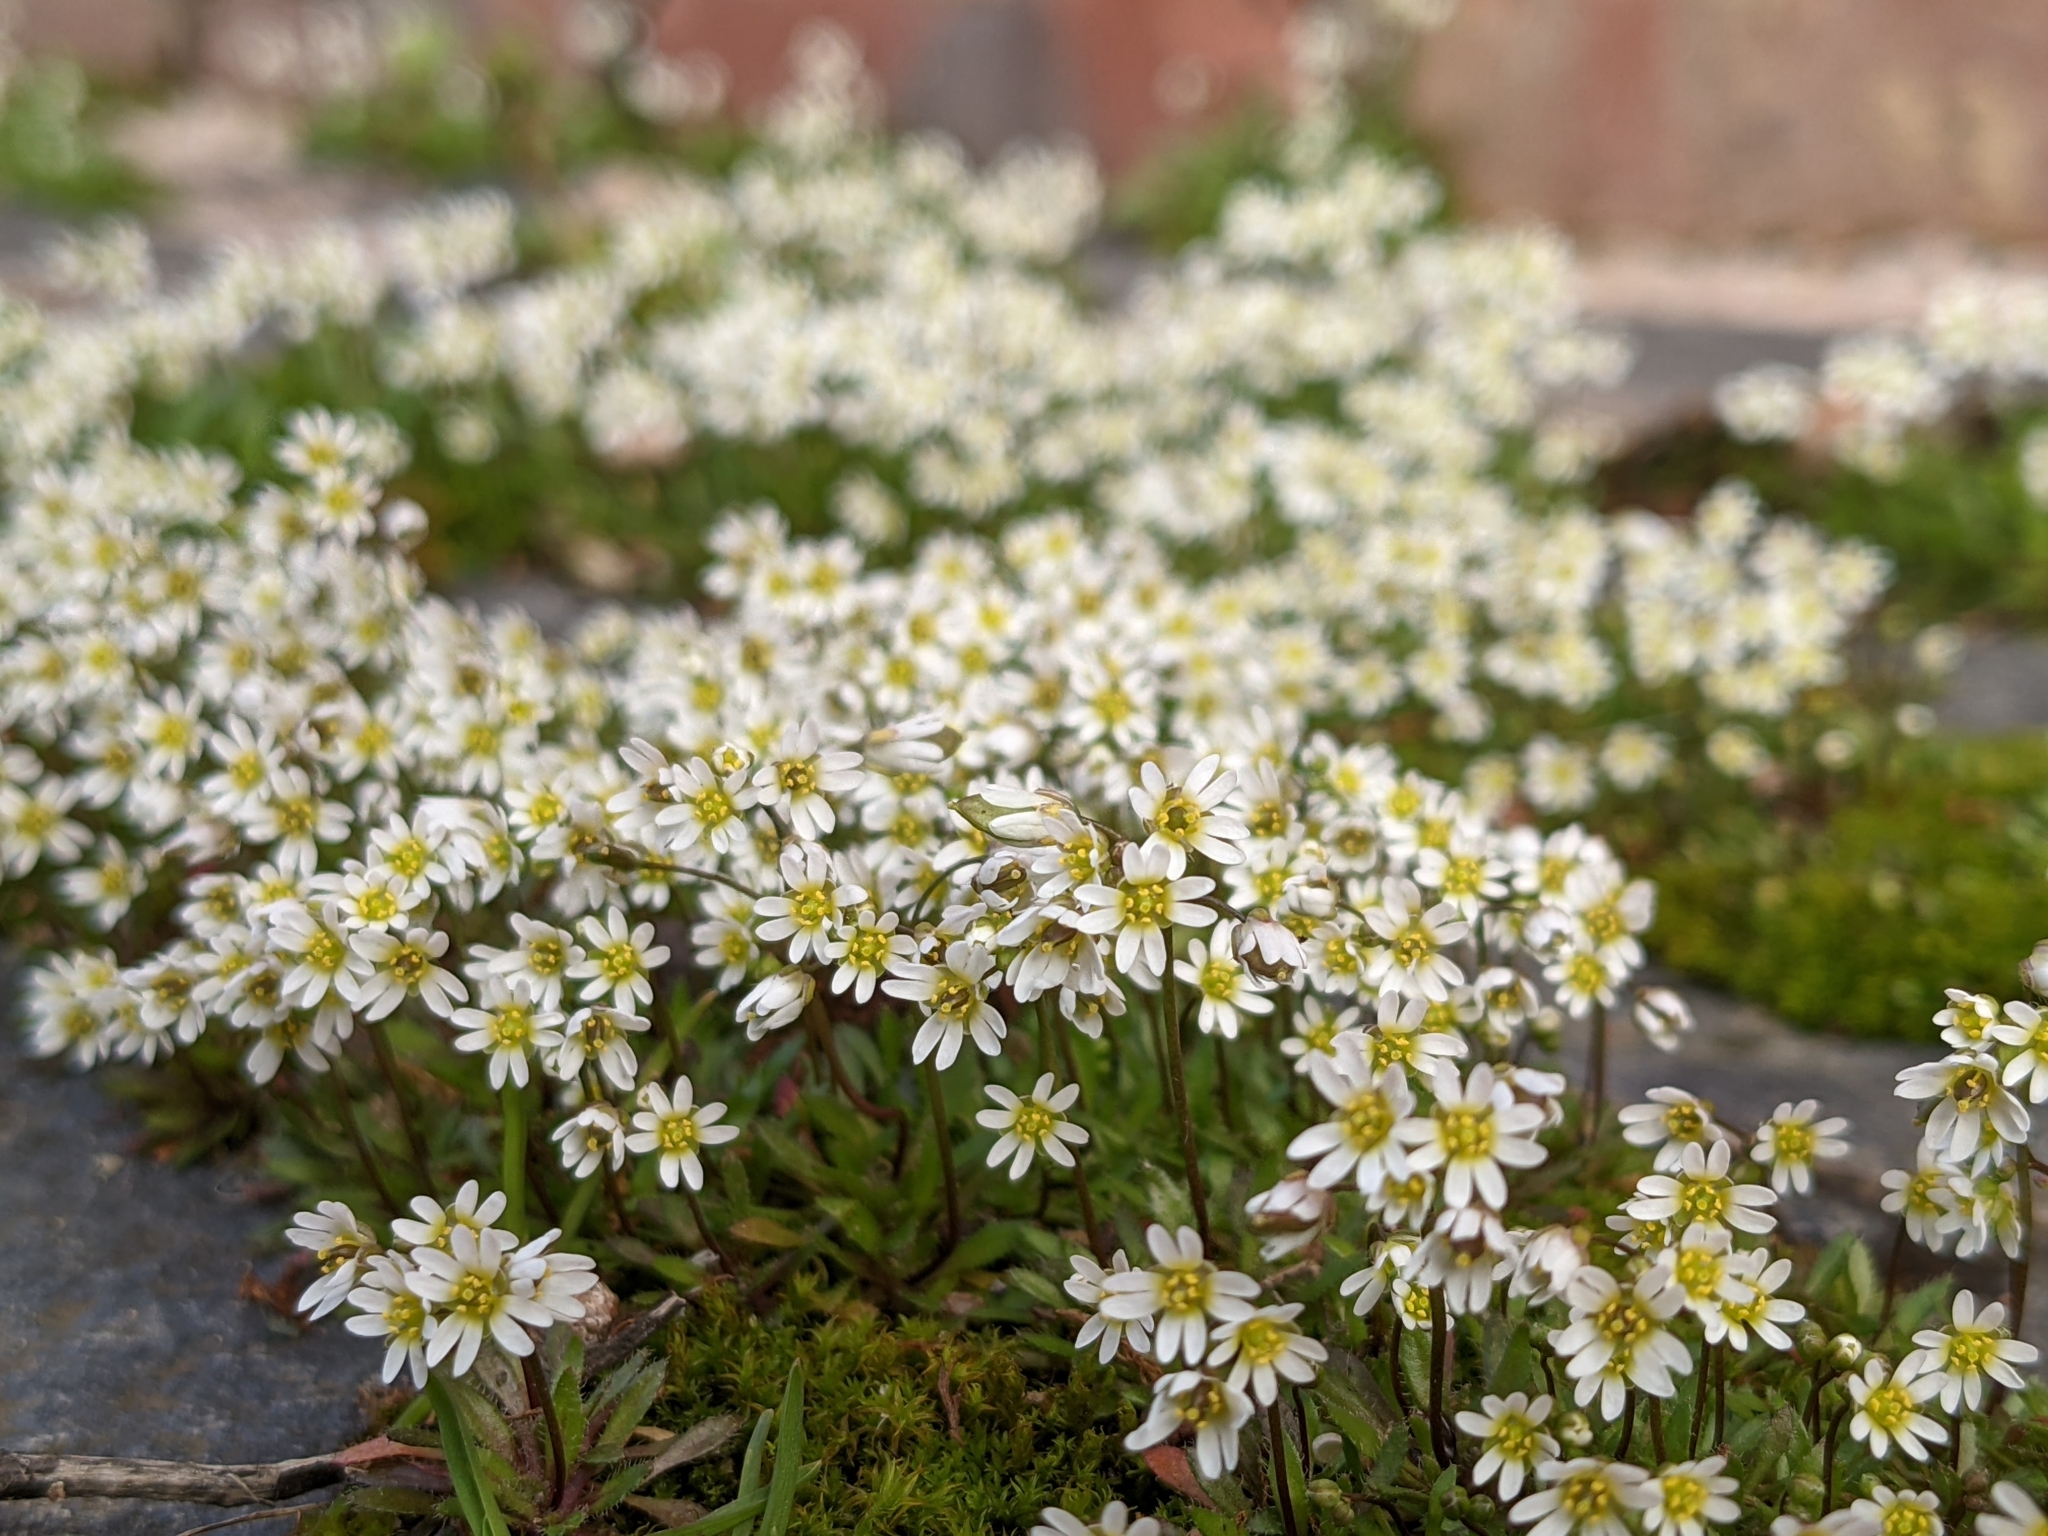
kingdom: Plantae
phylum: Tracheophyta
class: Magnoliopsida
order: Brassicales
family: Brassicaceae
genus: Draba
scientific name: Draba verna
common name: Spring draba
